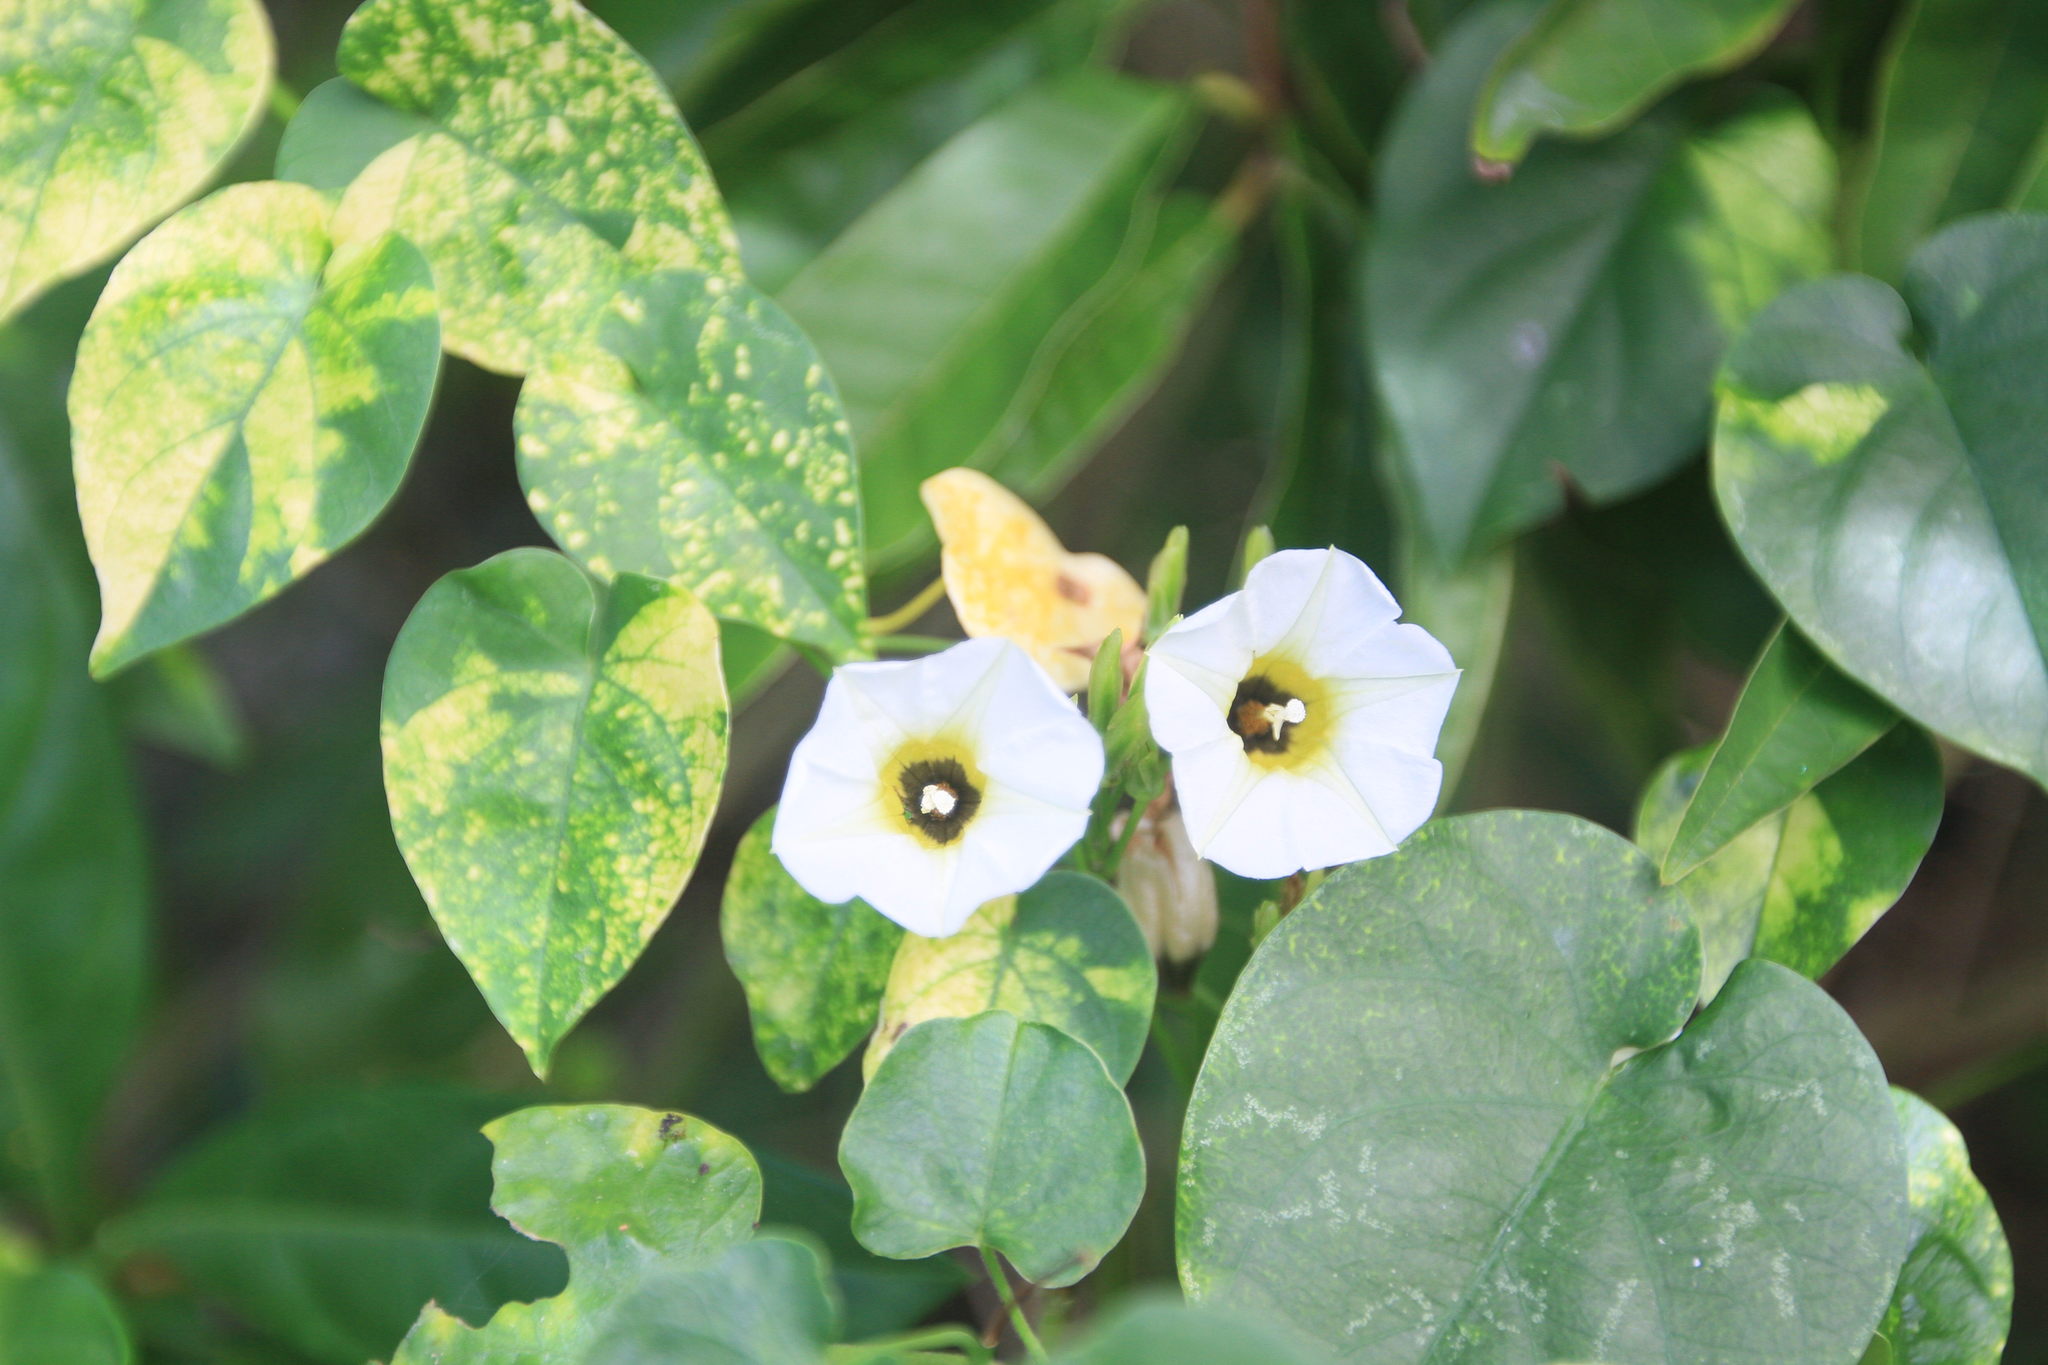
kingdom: Plantae
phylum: Tracheophyta
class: Magnoliopsida
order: Solanales
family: Convolvulaceae
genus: Ipomoea
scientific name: Ipomoea corymbosa
